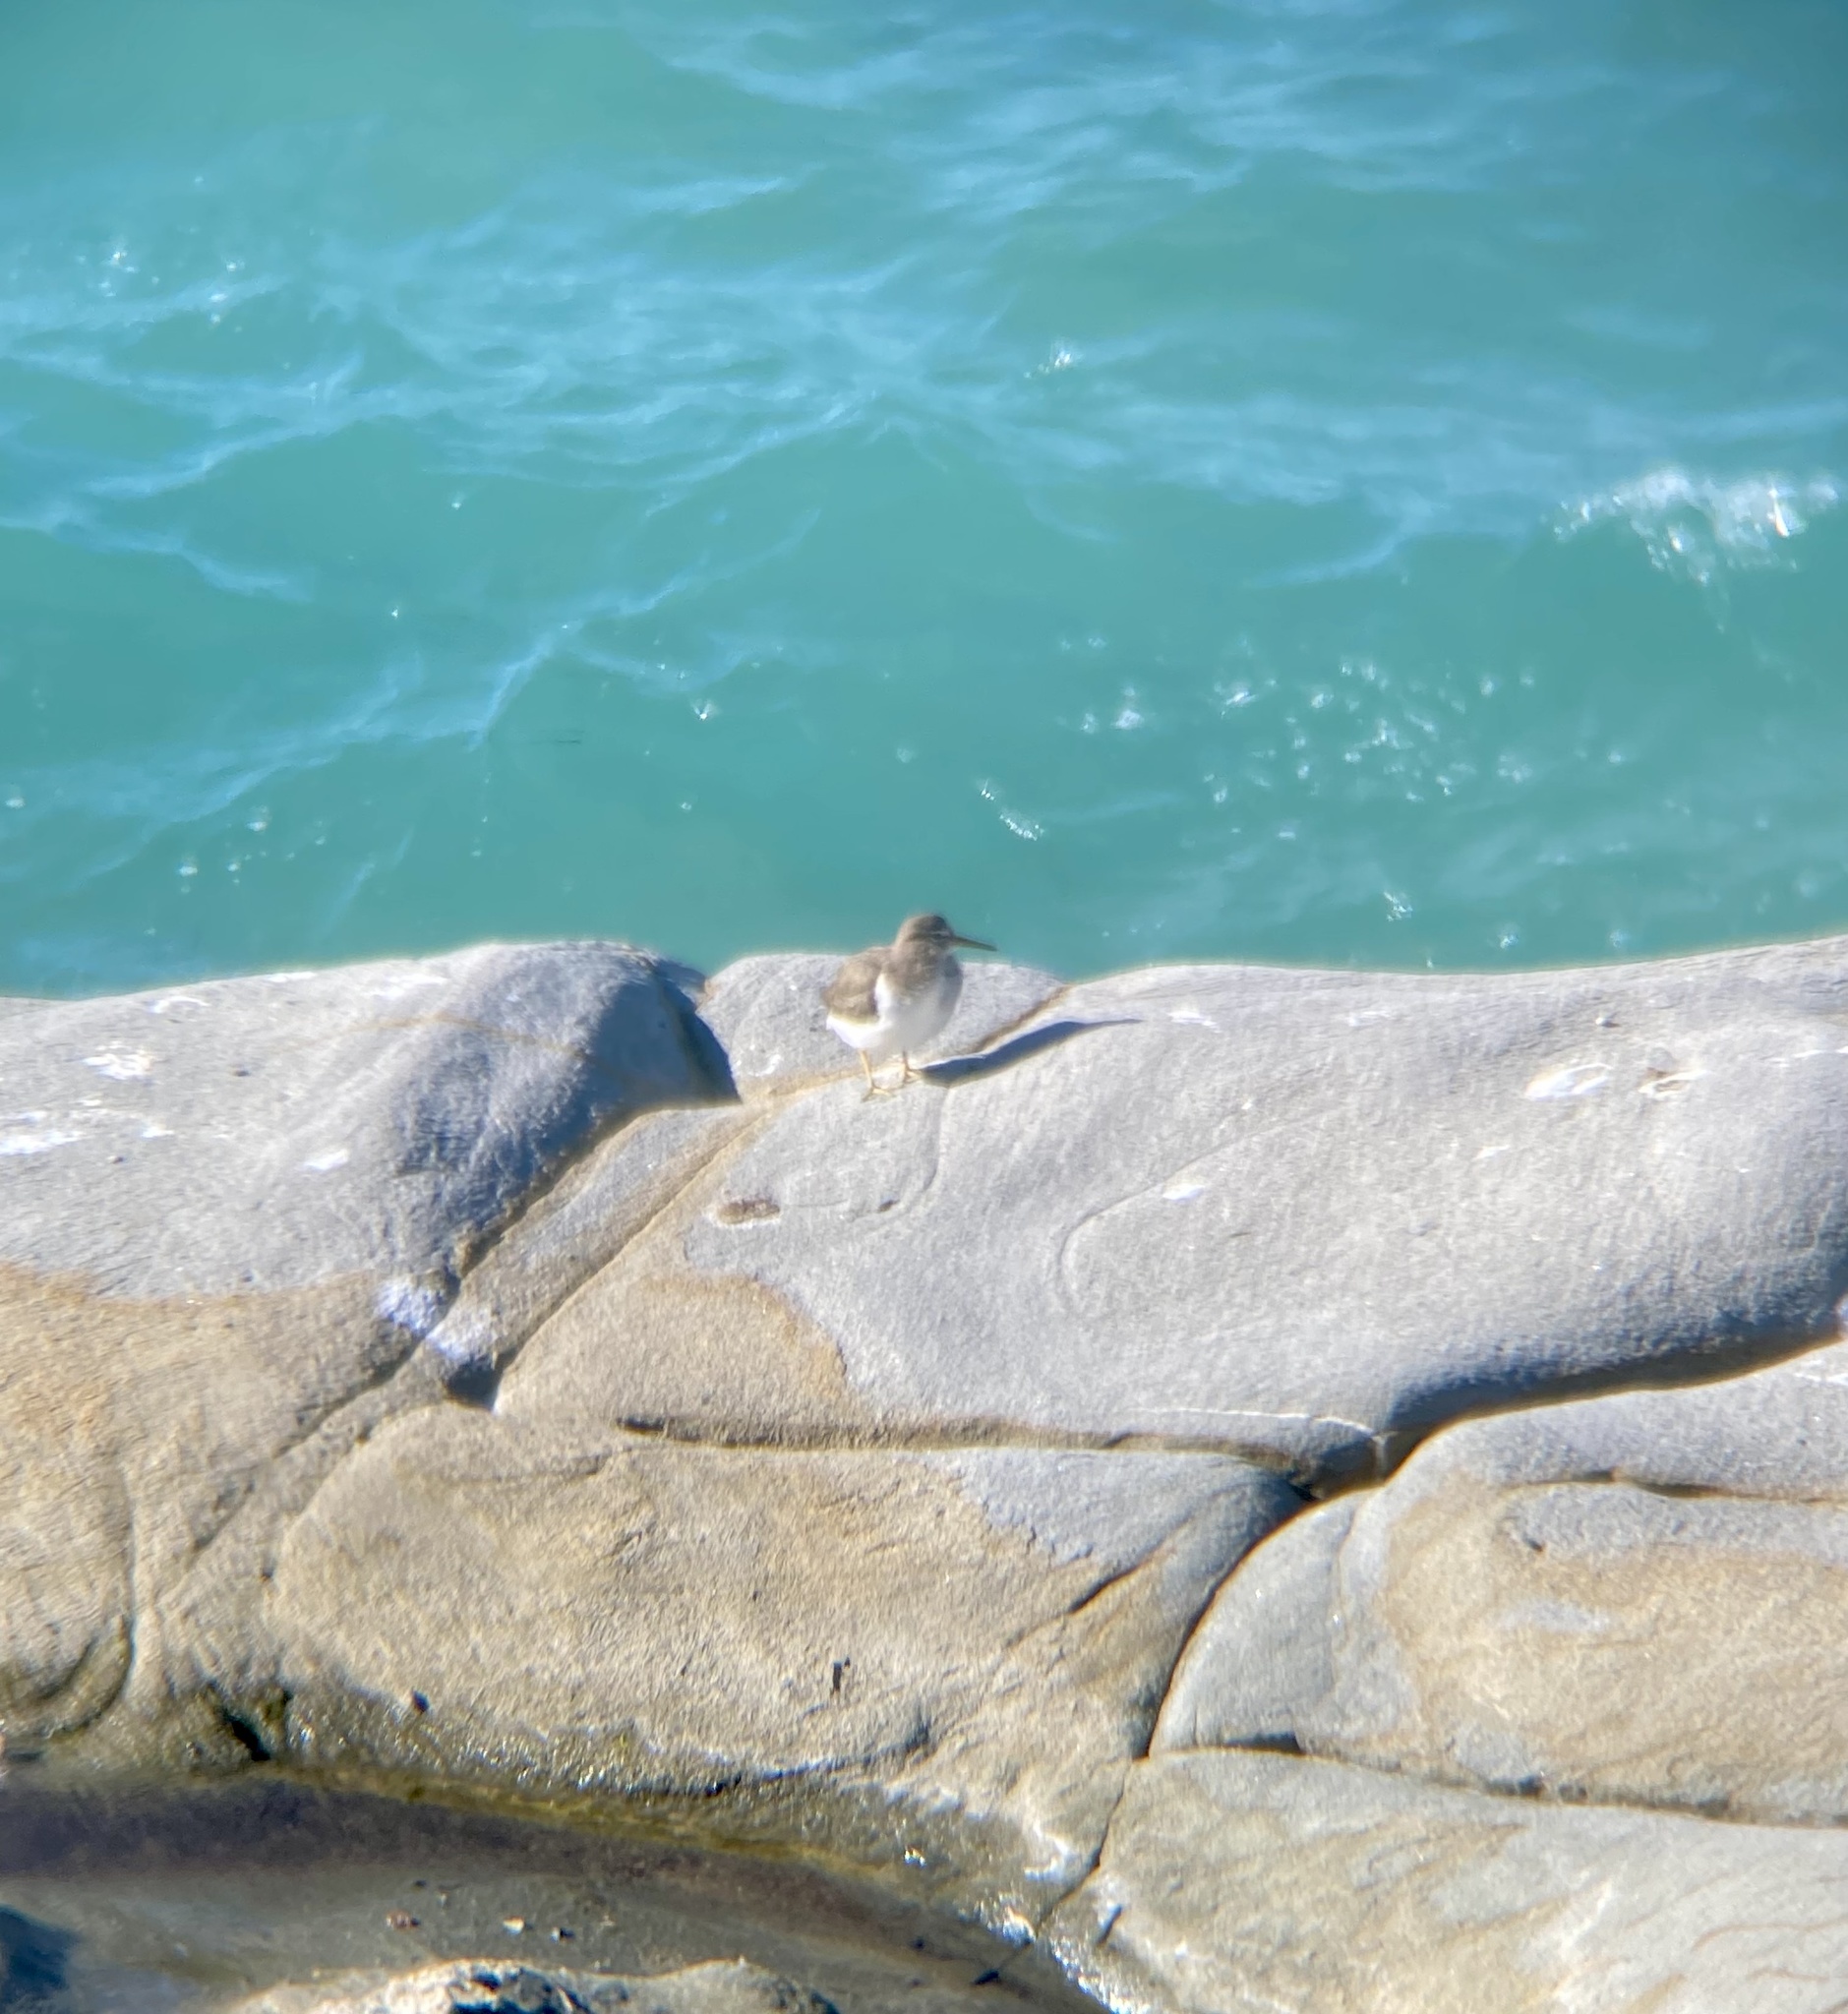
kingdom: Animalia
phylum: Chordata
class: Aves
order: Charadriiformes
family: Scolopacidae
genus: Actitis
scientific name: Actitis macularius
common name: Spotted sandpiper
